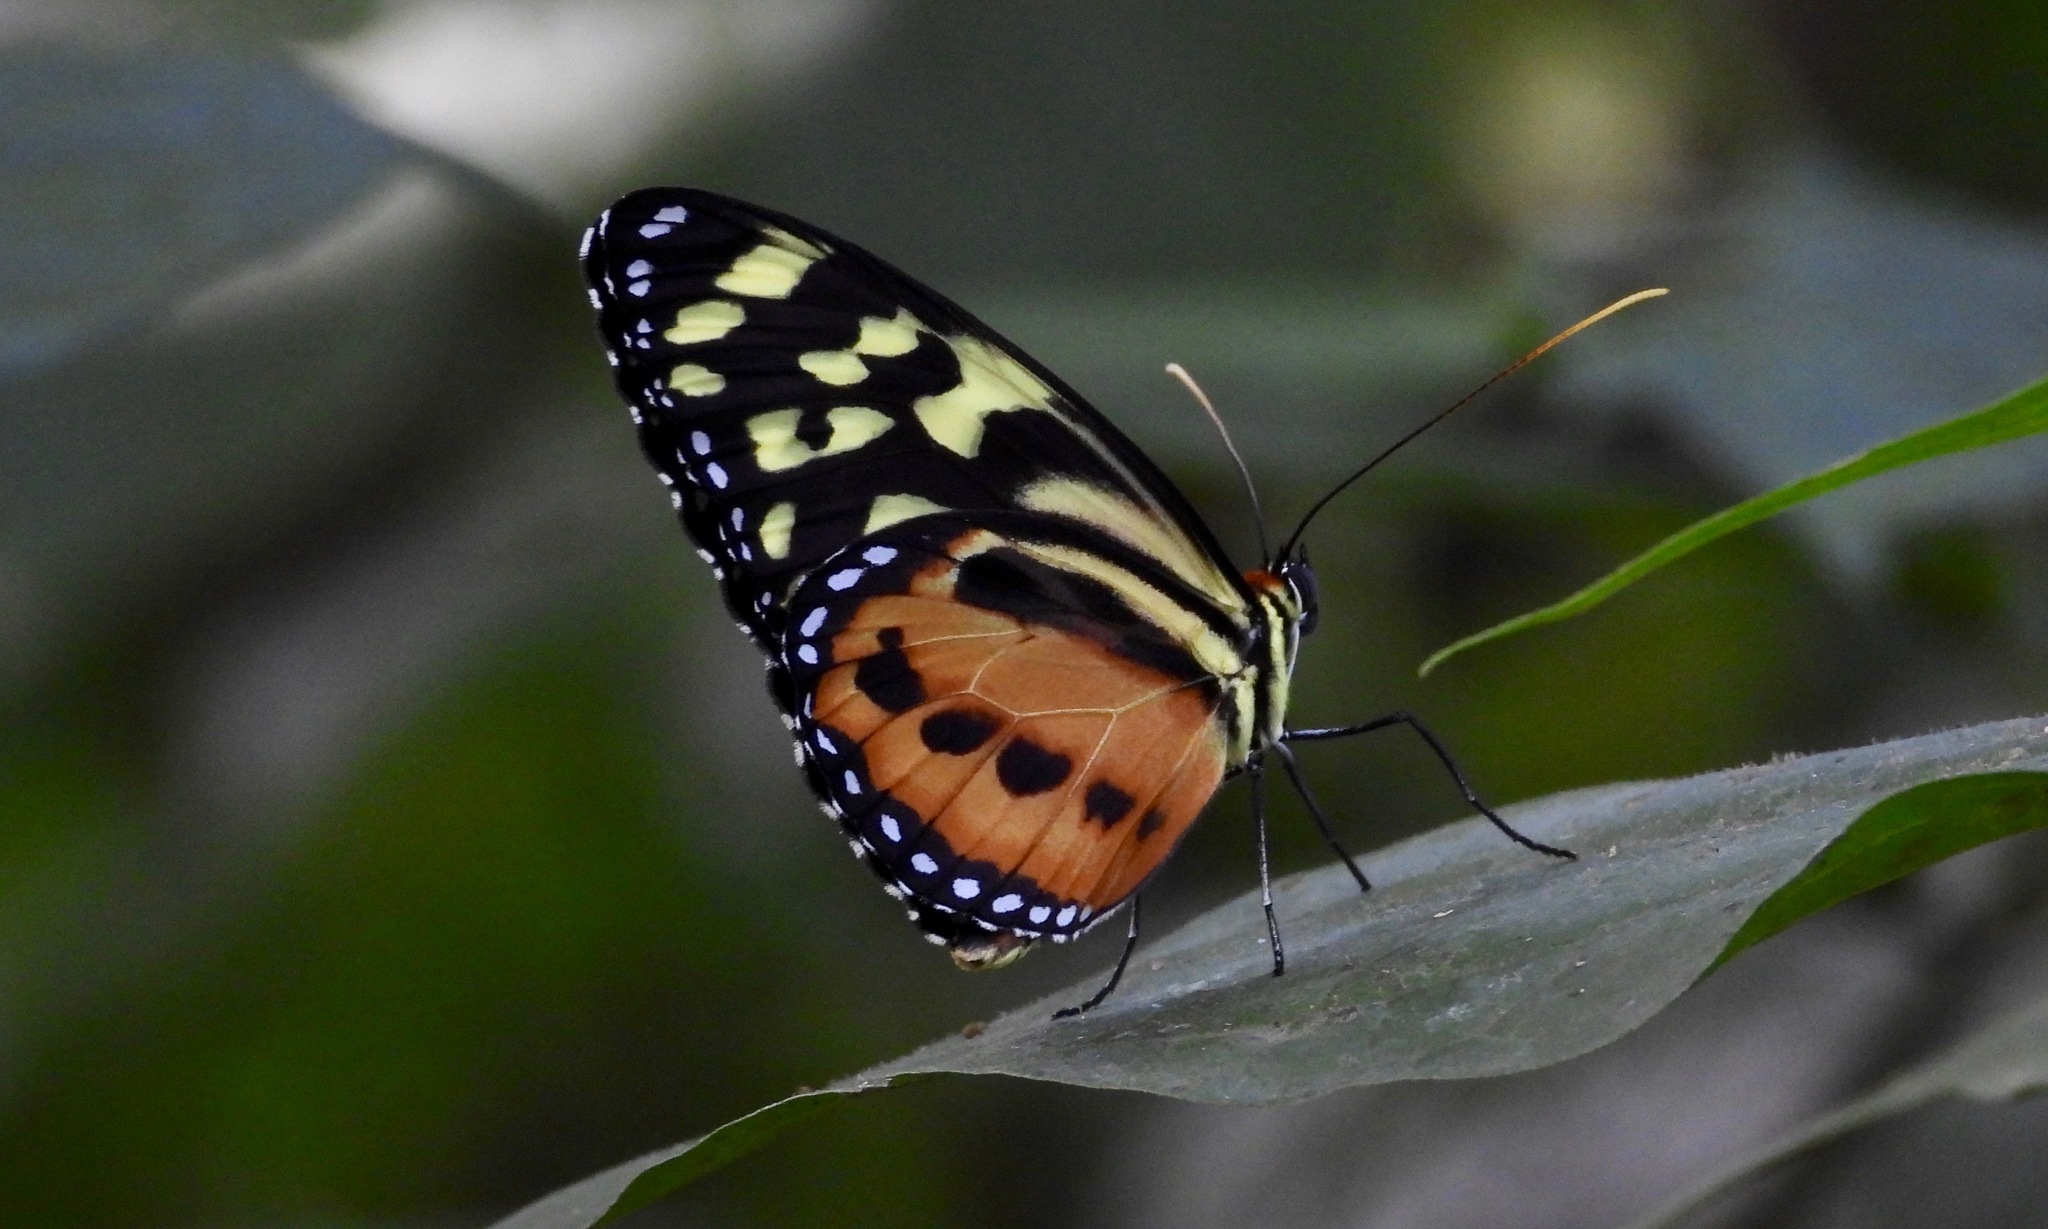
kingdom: Animalia
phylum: Arthropoda
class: Insecta
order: Lepidoptera
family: Nymphalidae
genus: Tithorea
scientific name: Tithorea harmonia
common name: Harmonia tigerwing
